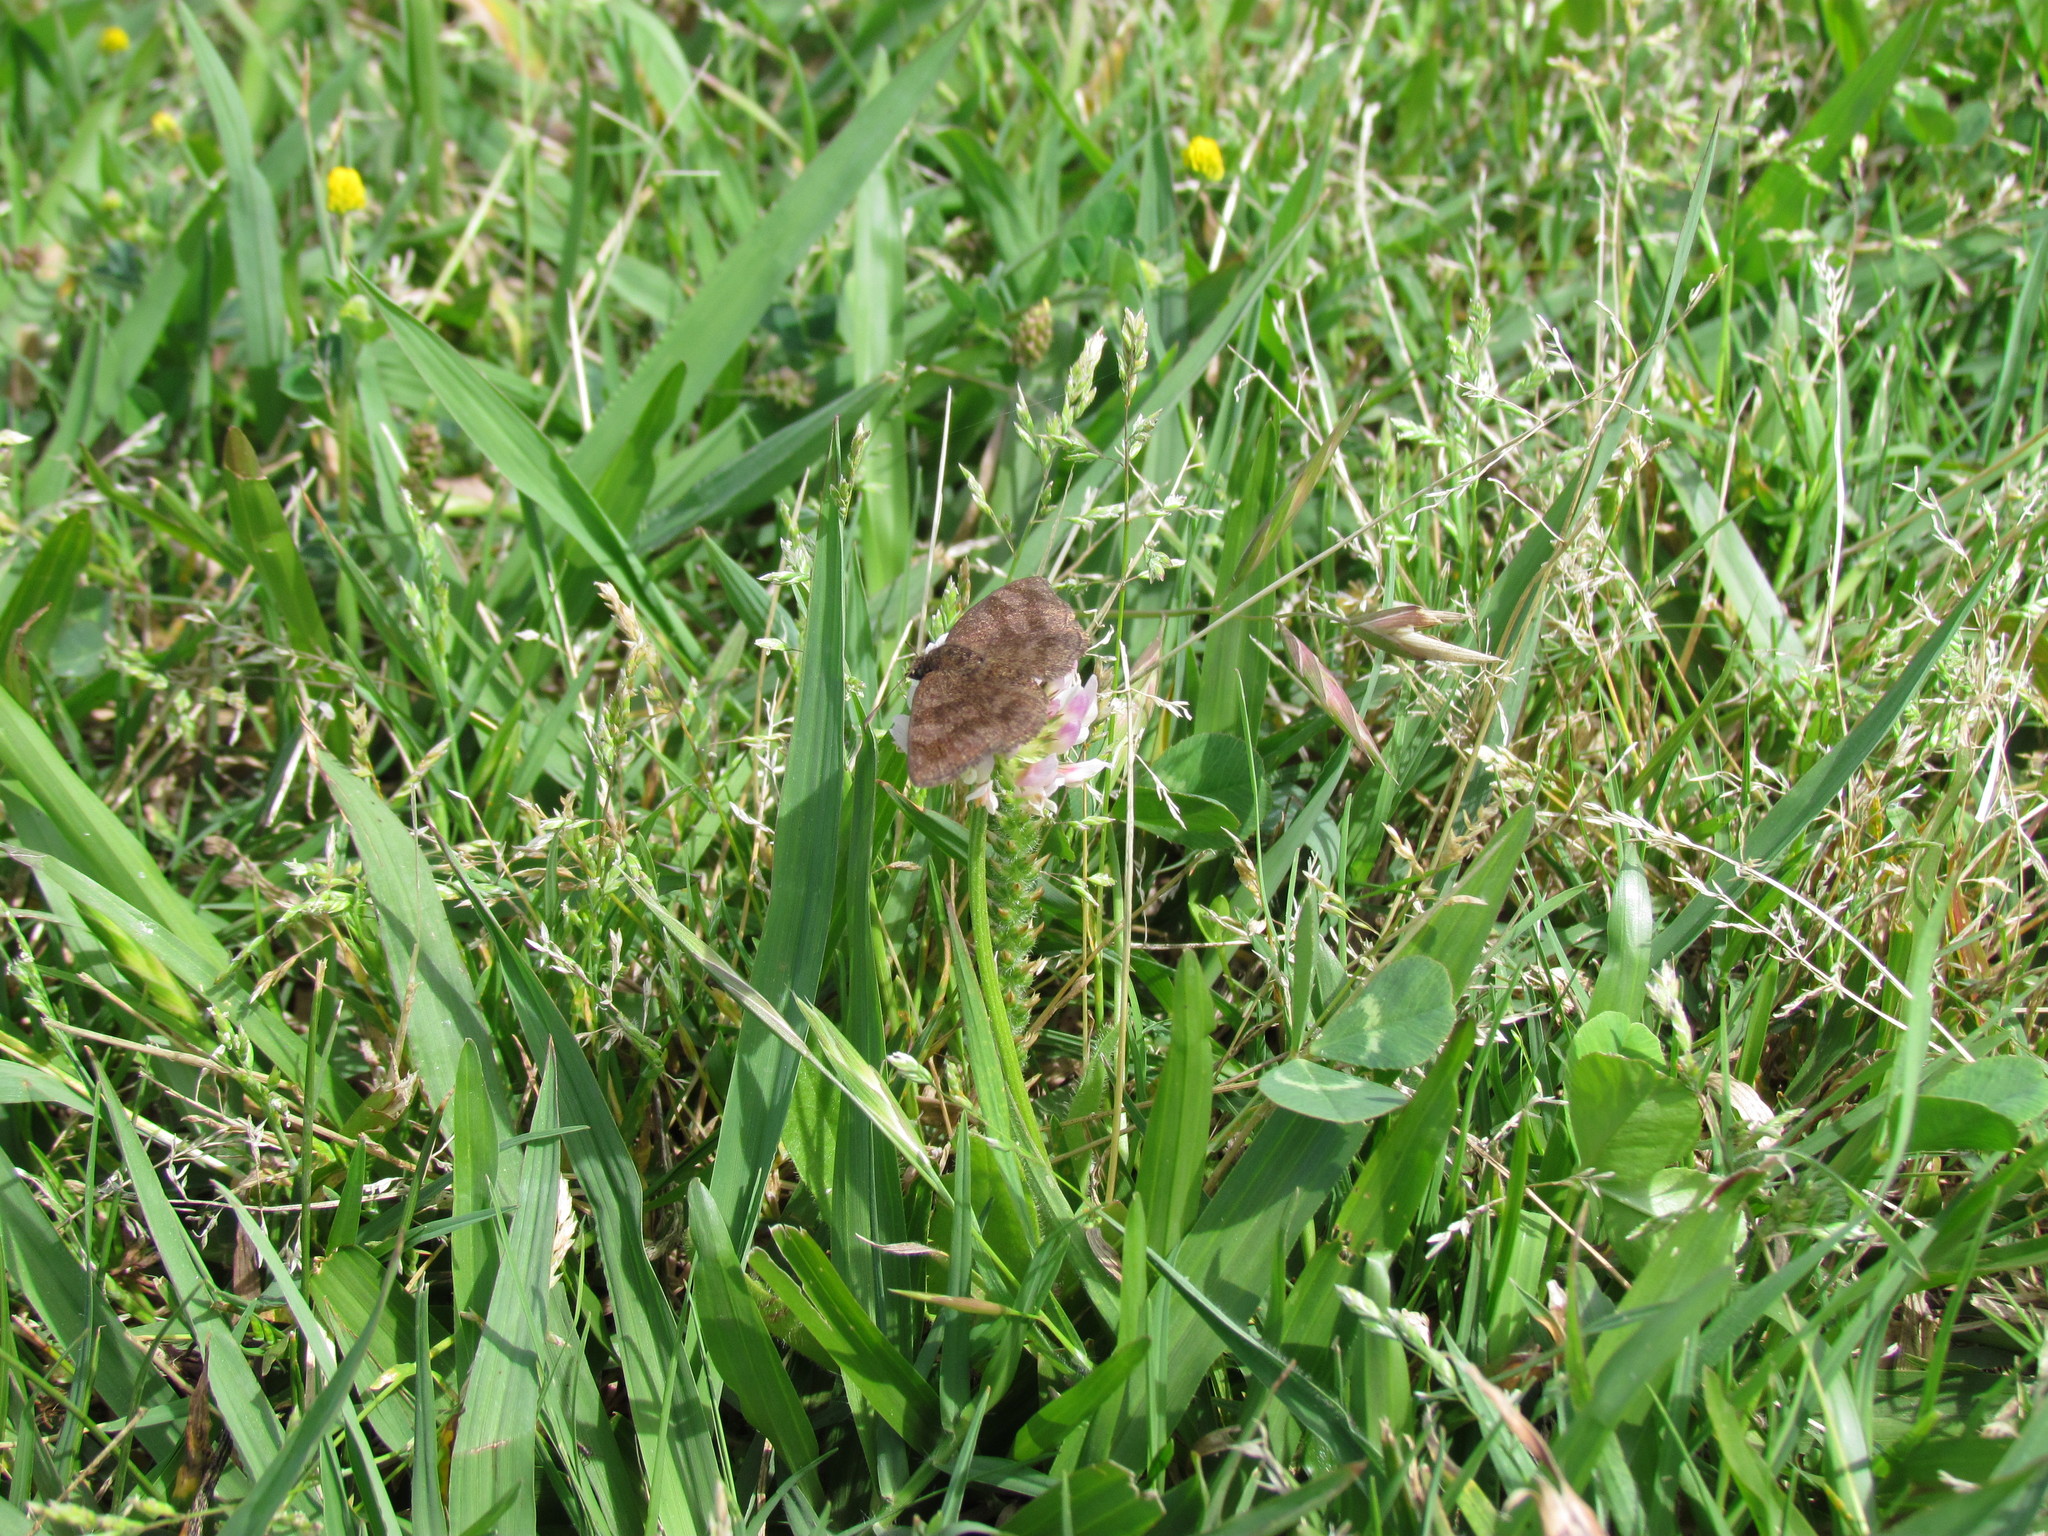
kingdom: Animalia
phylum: Arthropoda
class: Insecta
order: Lepidoptera
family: Hesperiidae
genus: Viola
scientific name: Viola minor
